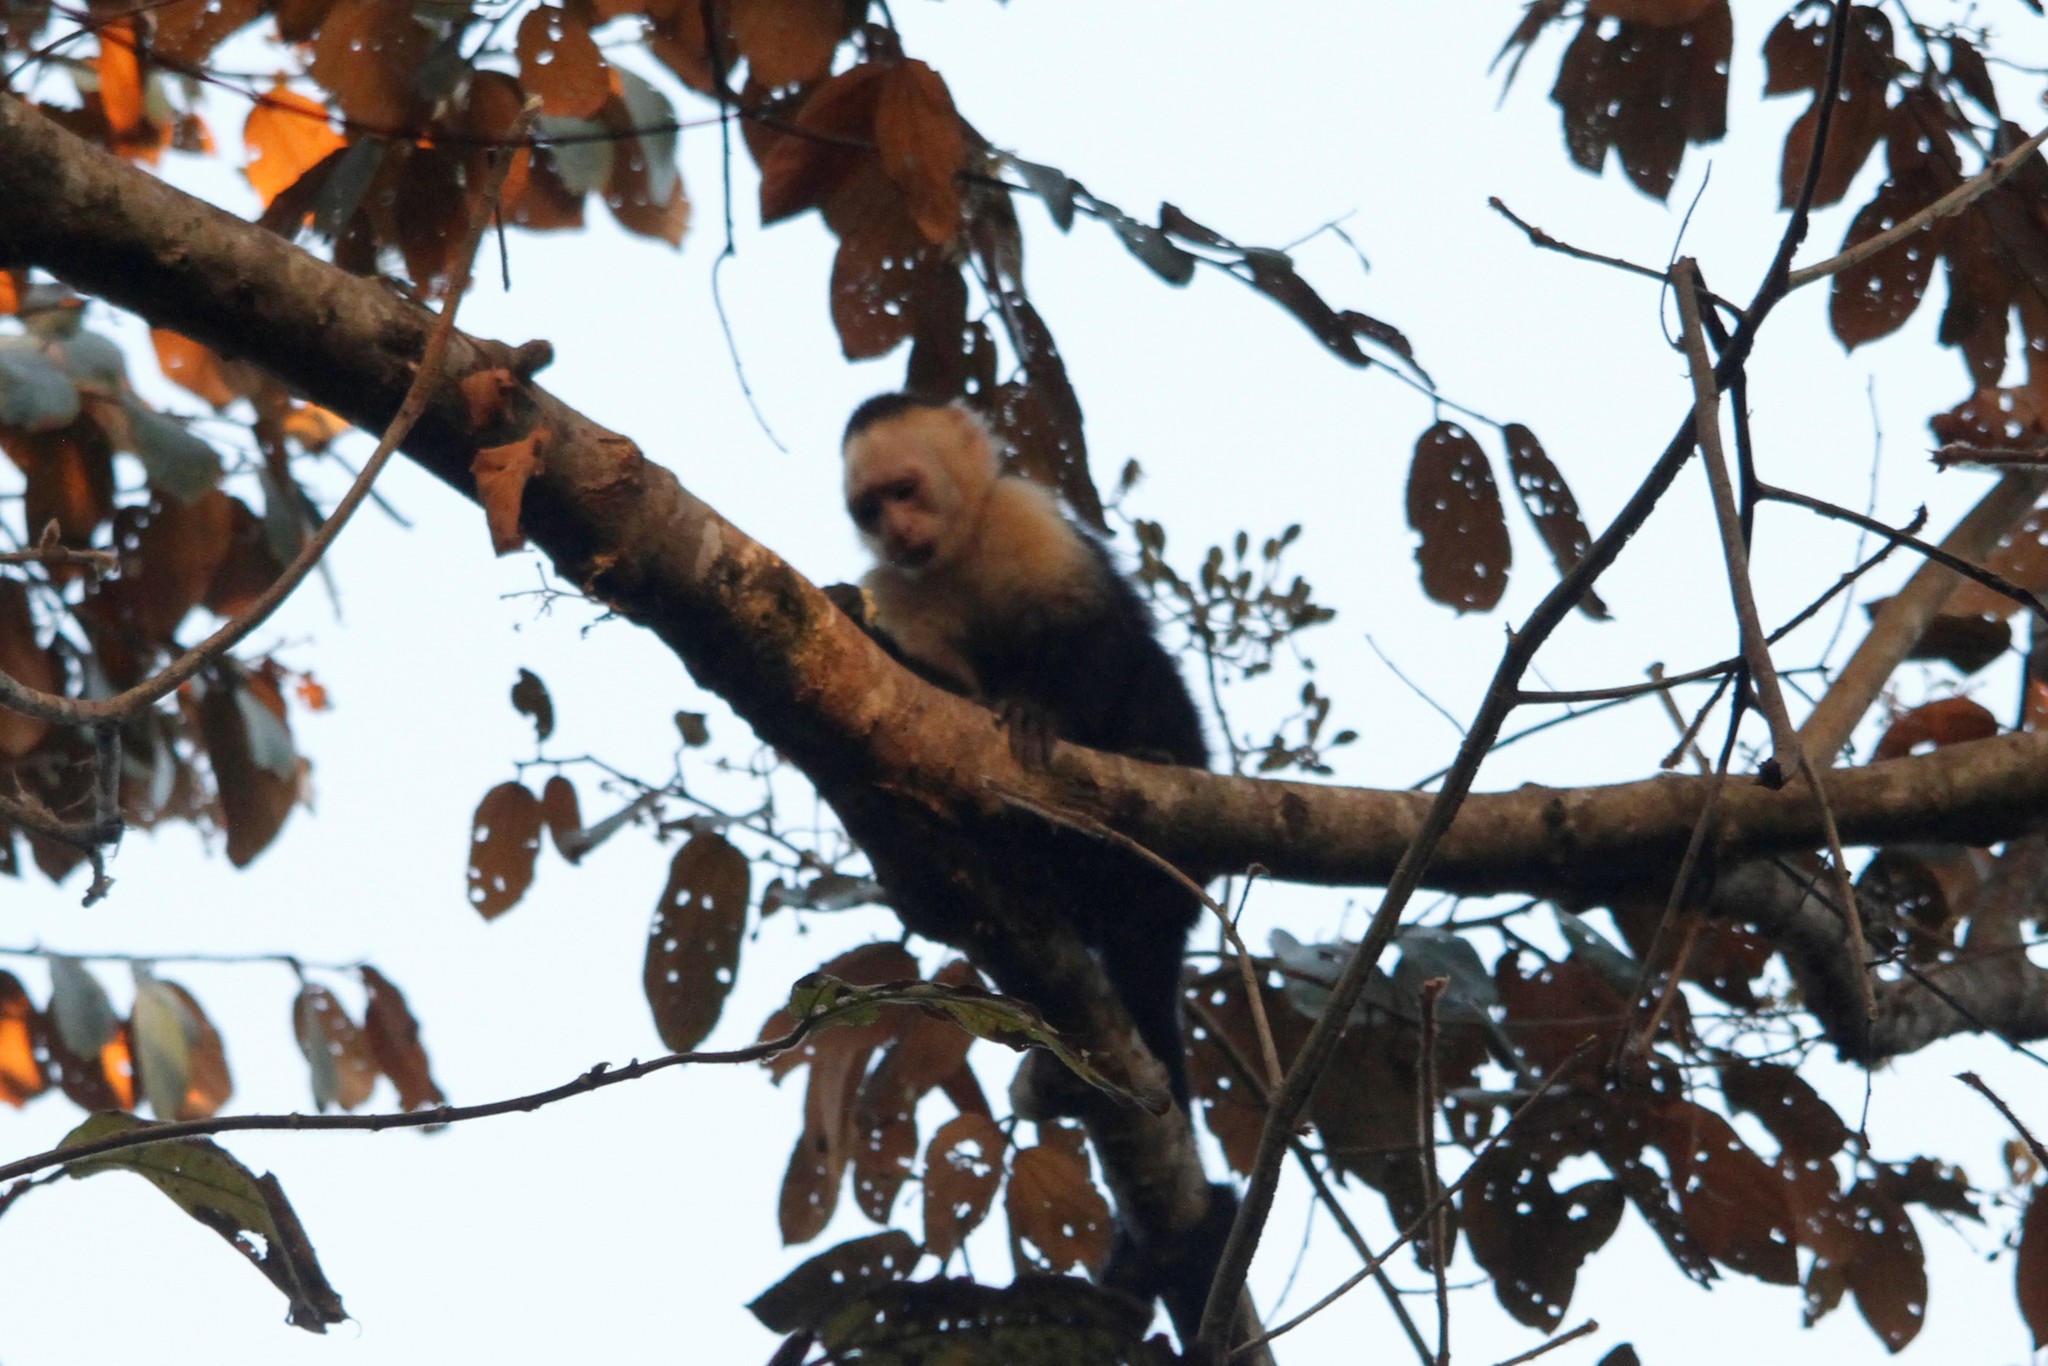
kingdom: Animalia
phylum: Chordata
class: Mammalia
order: Primates
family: Cebidae
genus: Cebus
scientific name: Cebus imitator
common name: Panamanian white-faced capuchin
